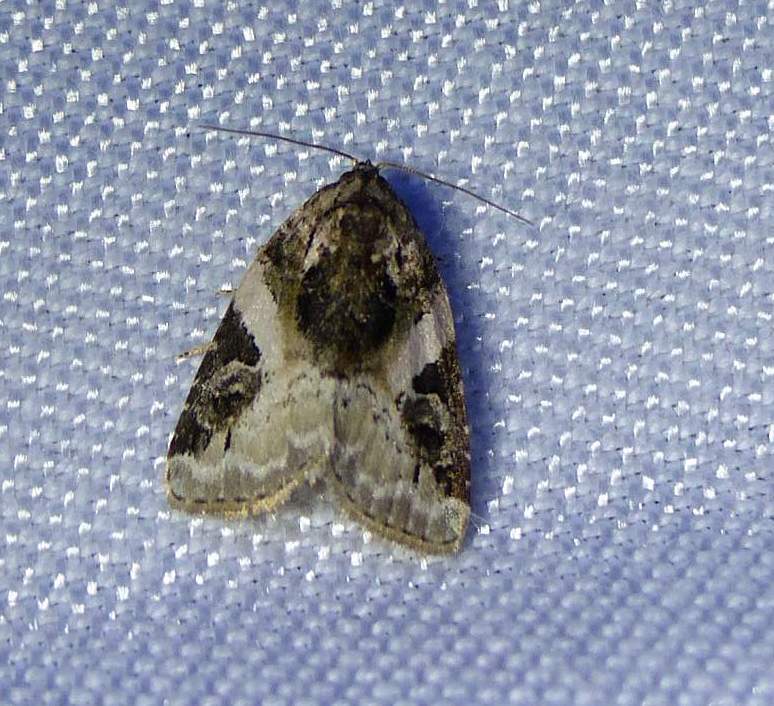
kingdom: Animalia
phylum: Arthropoda
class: Insecta
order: Lepidoptera
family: Noctuidae
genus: Pseudeustrotia
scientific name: Pseudeustrotia carneola
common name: Pink-barred lithacodia moth
